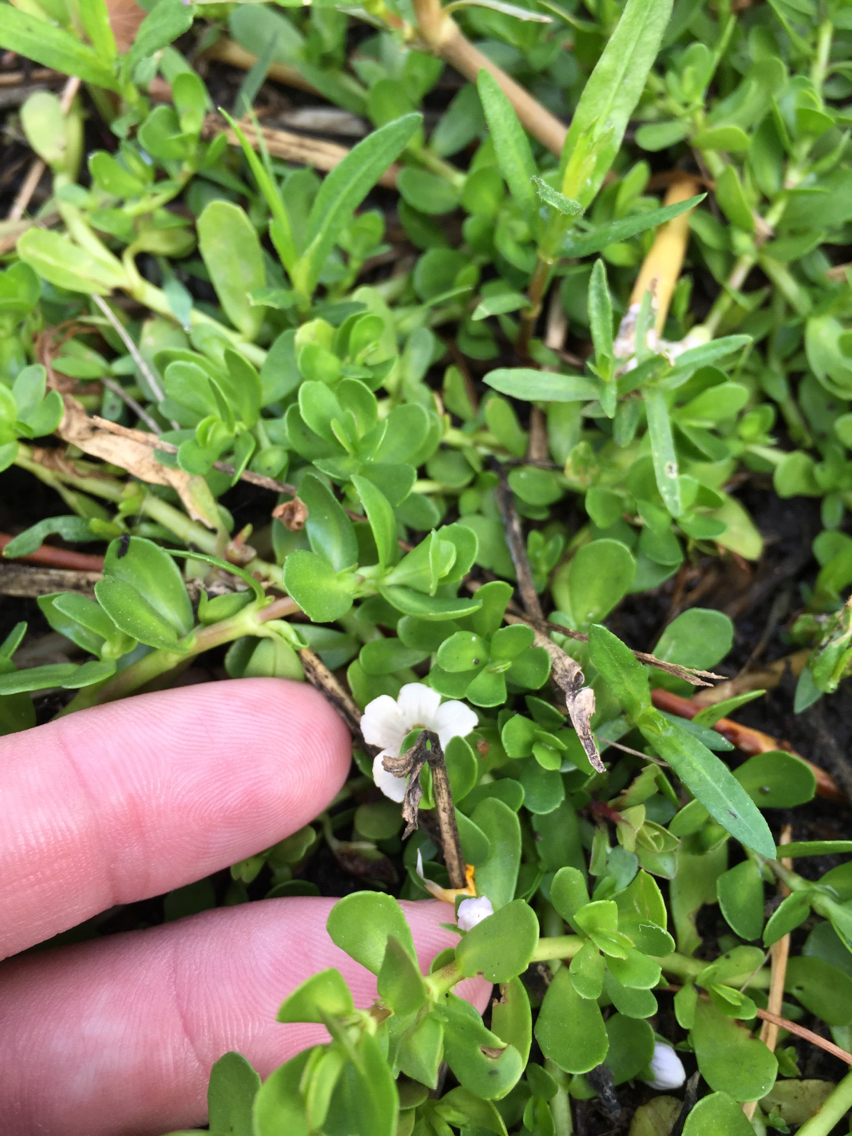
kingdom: Plantae
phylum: Tracheophyta
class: Magnoliopsida
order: Lamiales
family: Plantaginaceae
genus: Bacopa
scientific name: Bacopa monnieri
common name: Indian-pennywort
